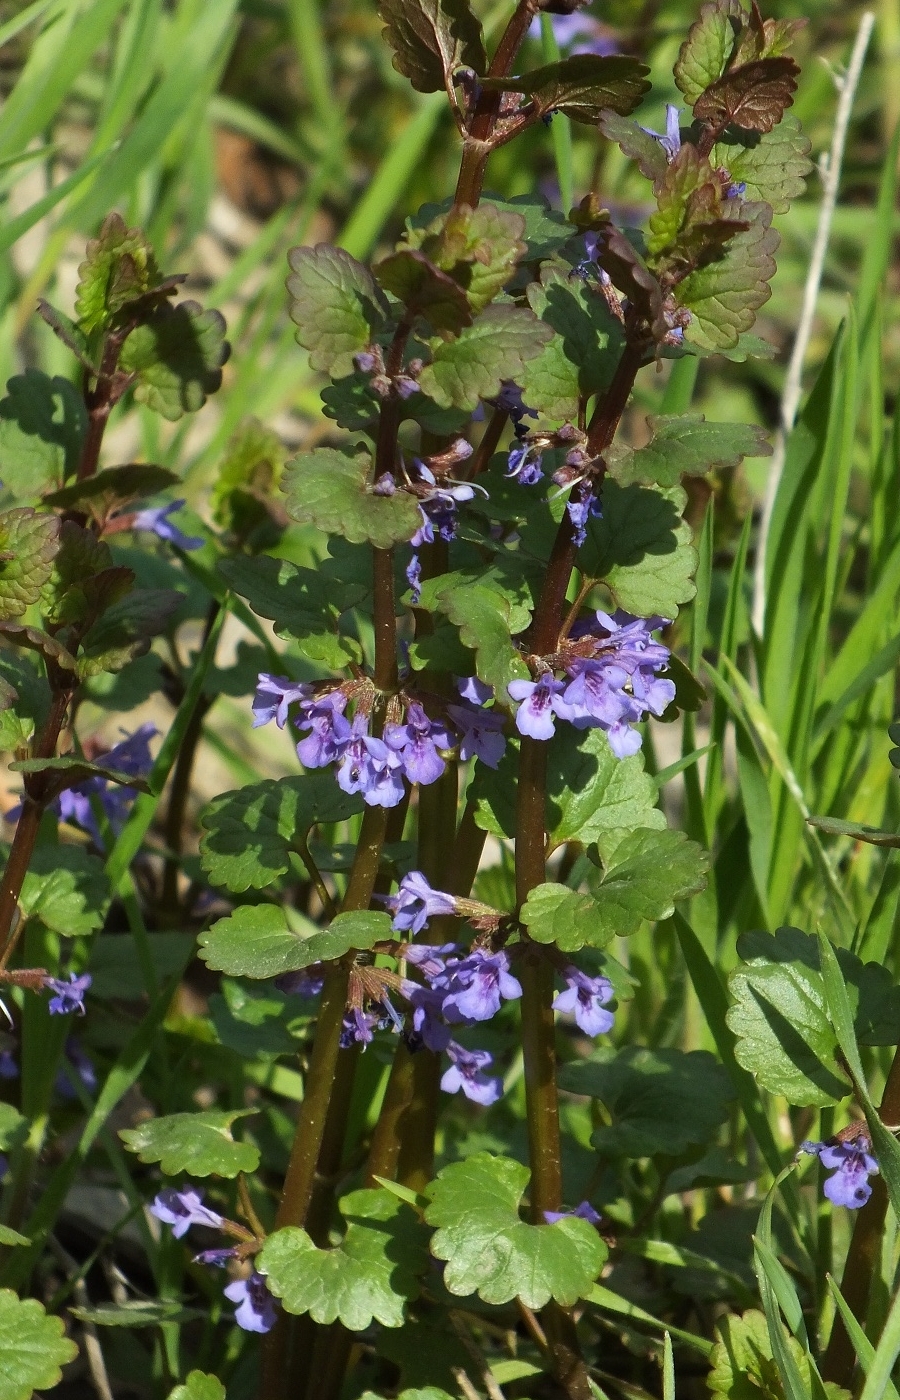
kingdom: Plantae
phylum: Tracheophyta
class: Magnoliopsida
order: Lamiales
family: Lamiaceae
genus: Glechoma
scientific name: Glechoma hederacea
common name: Ground ivy
